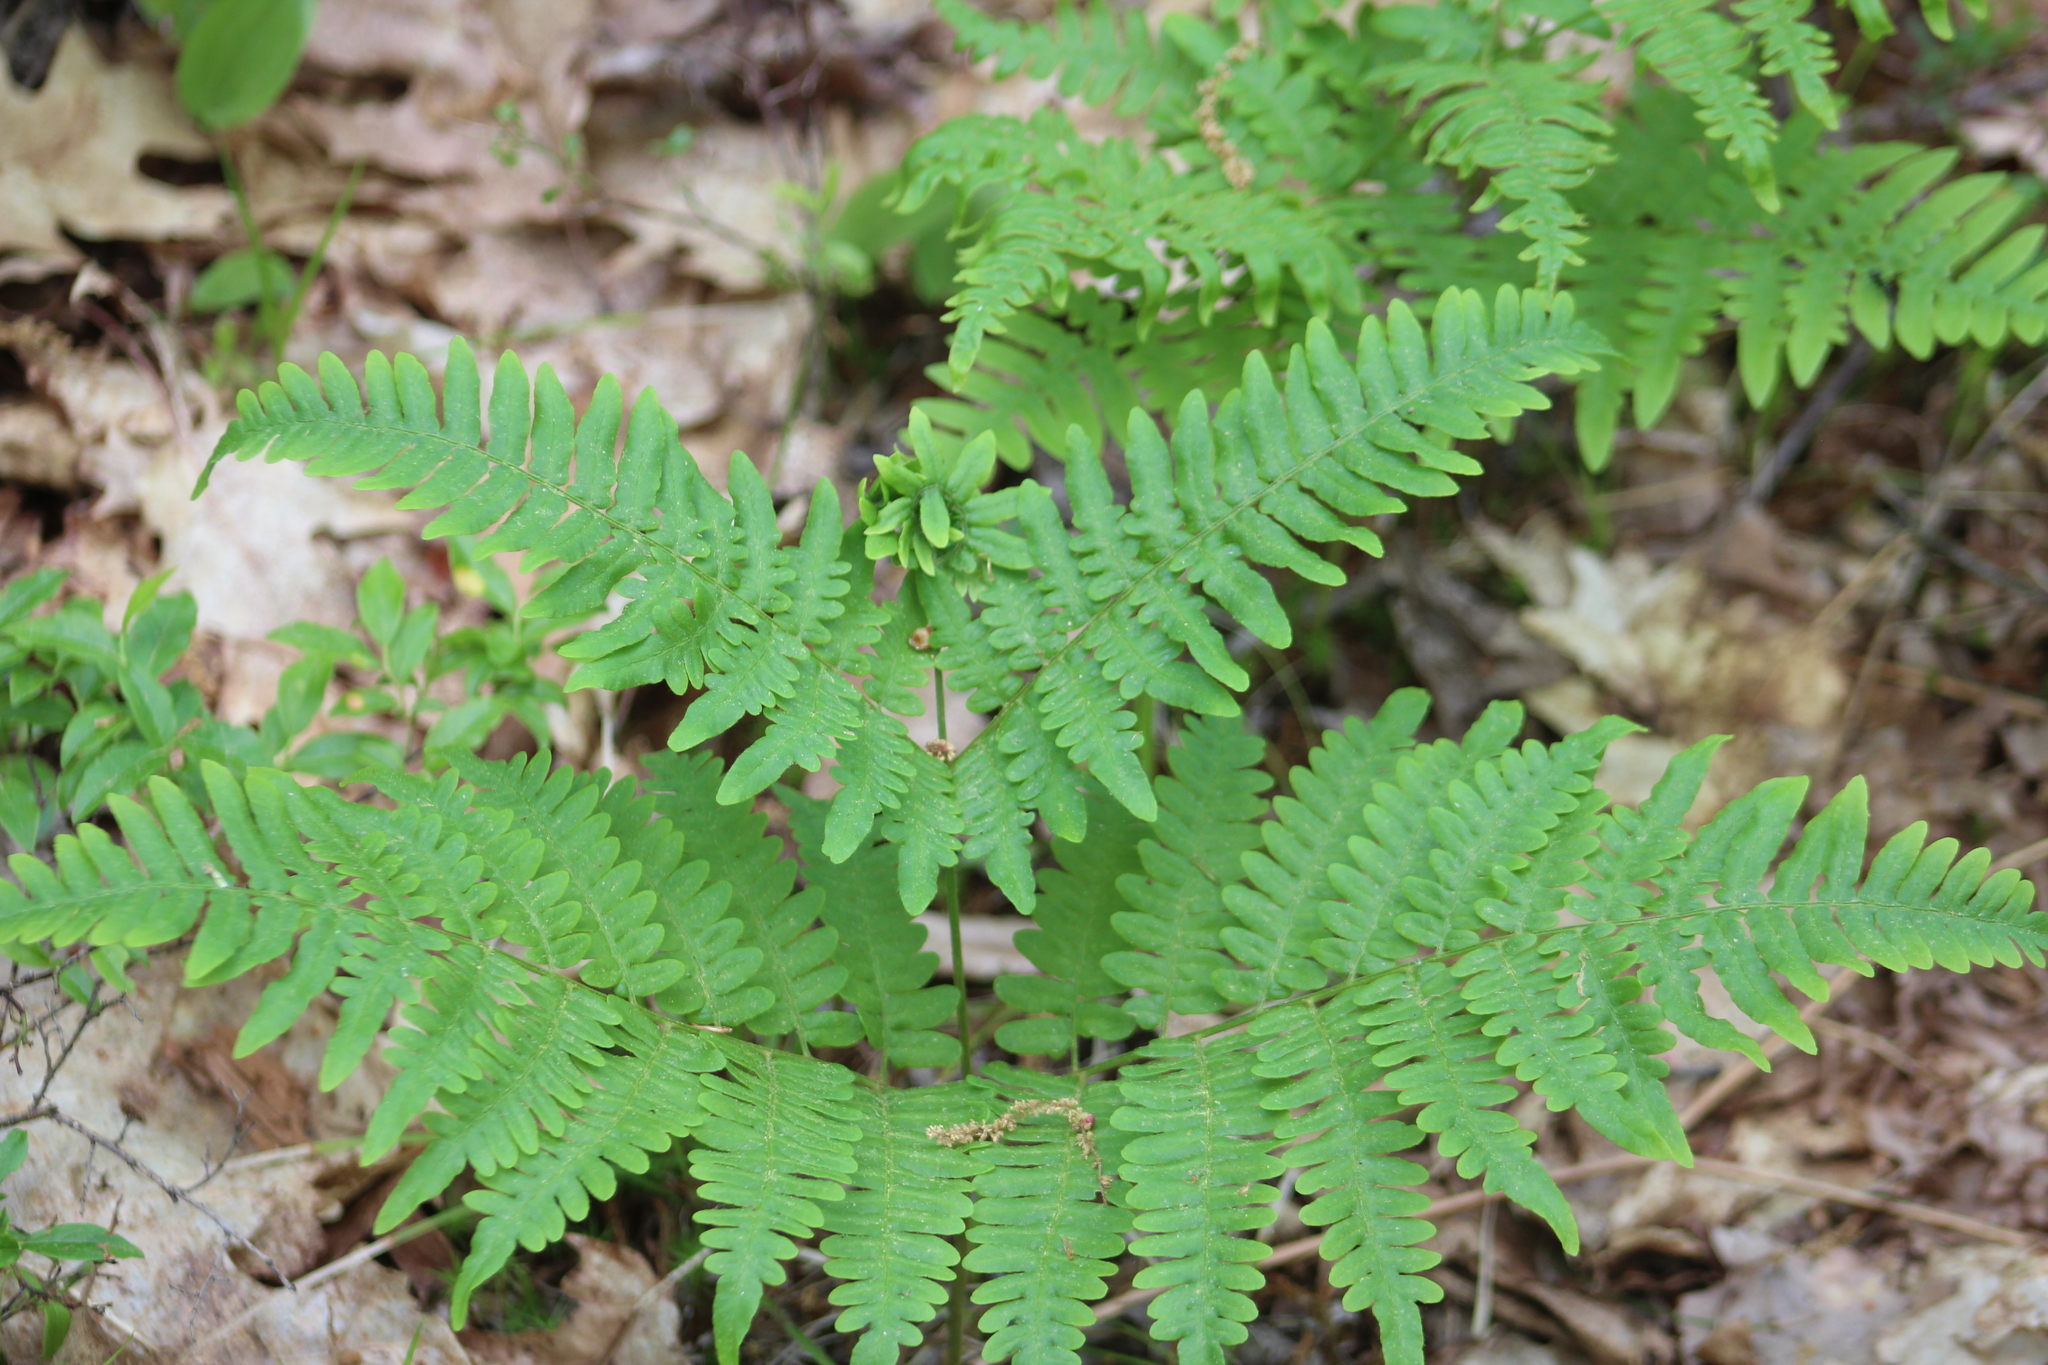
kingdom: Plantae
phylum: Tracheophyta
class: Polypodiopsida
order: Polypodiales
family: Dennstaedtiaceae
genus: Pteridium
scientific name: Pteridium aquilinum
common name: Bracken
